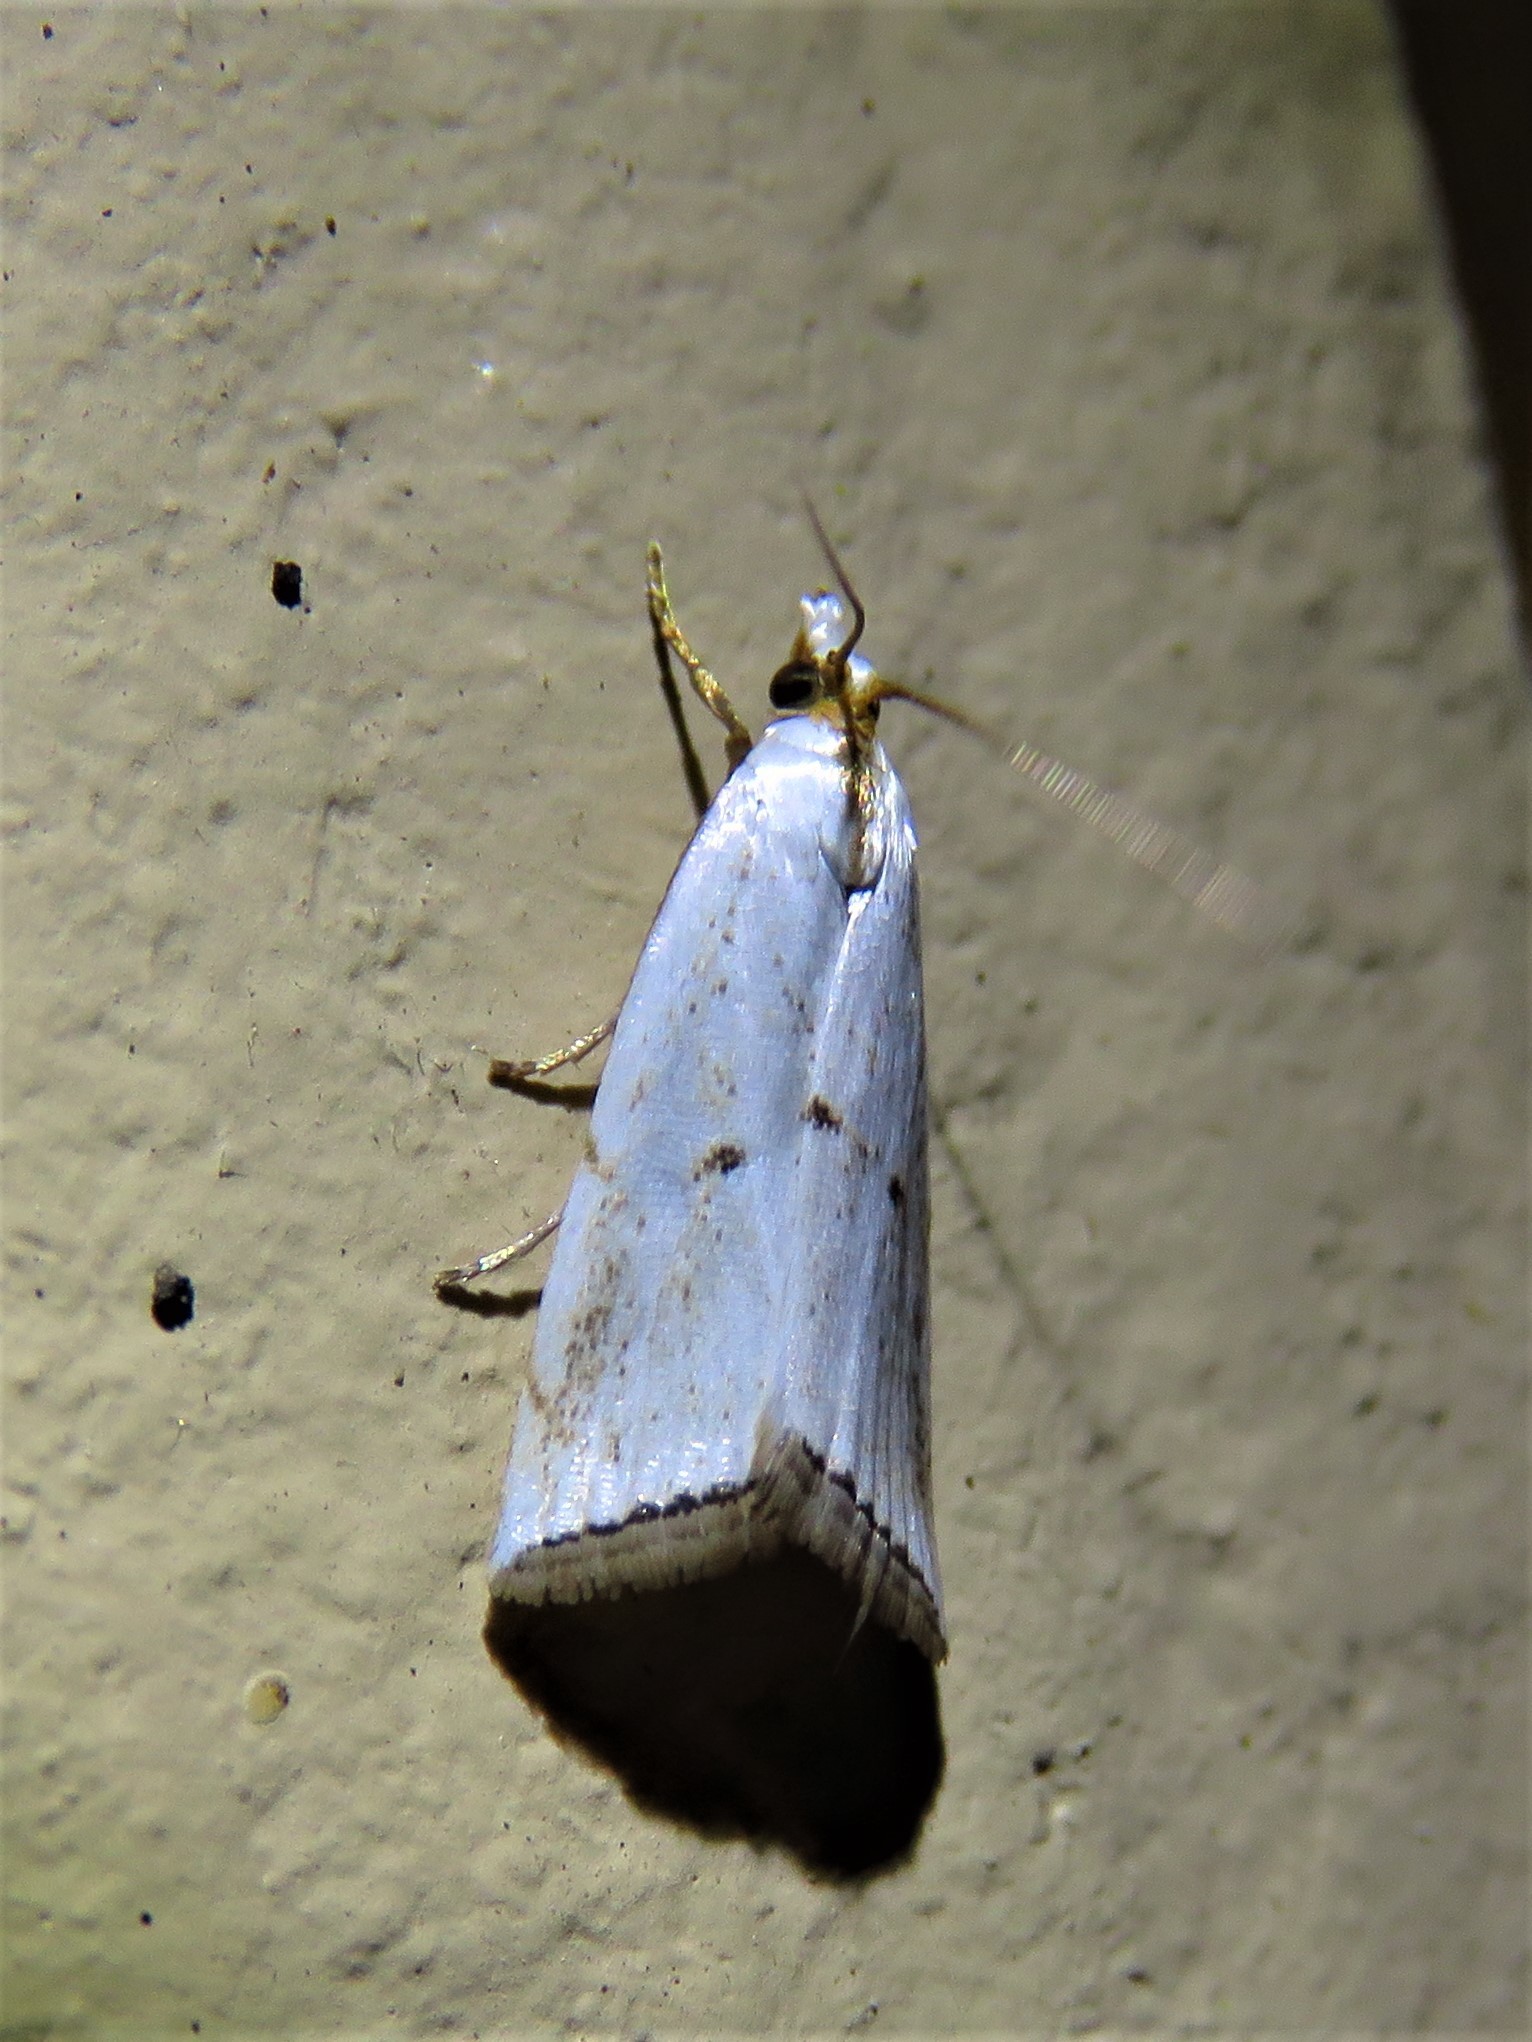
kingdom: Animalia
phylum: Arthropoda
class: Insecta
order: Lepidoptera
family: Crambidae
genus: Argyria
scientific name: Argyria pusillalis
